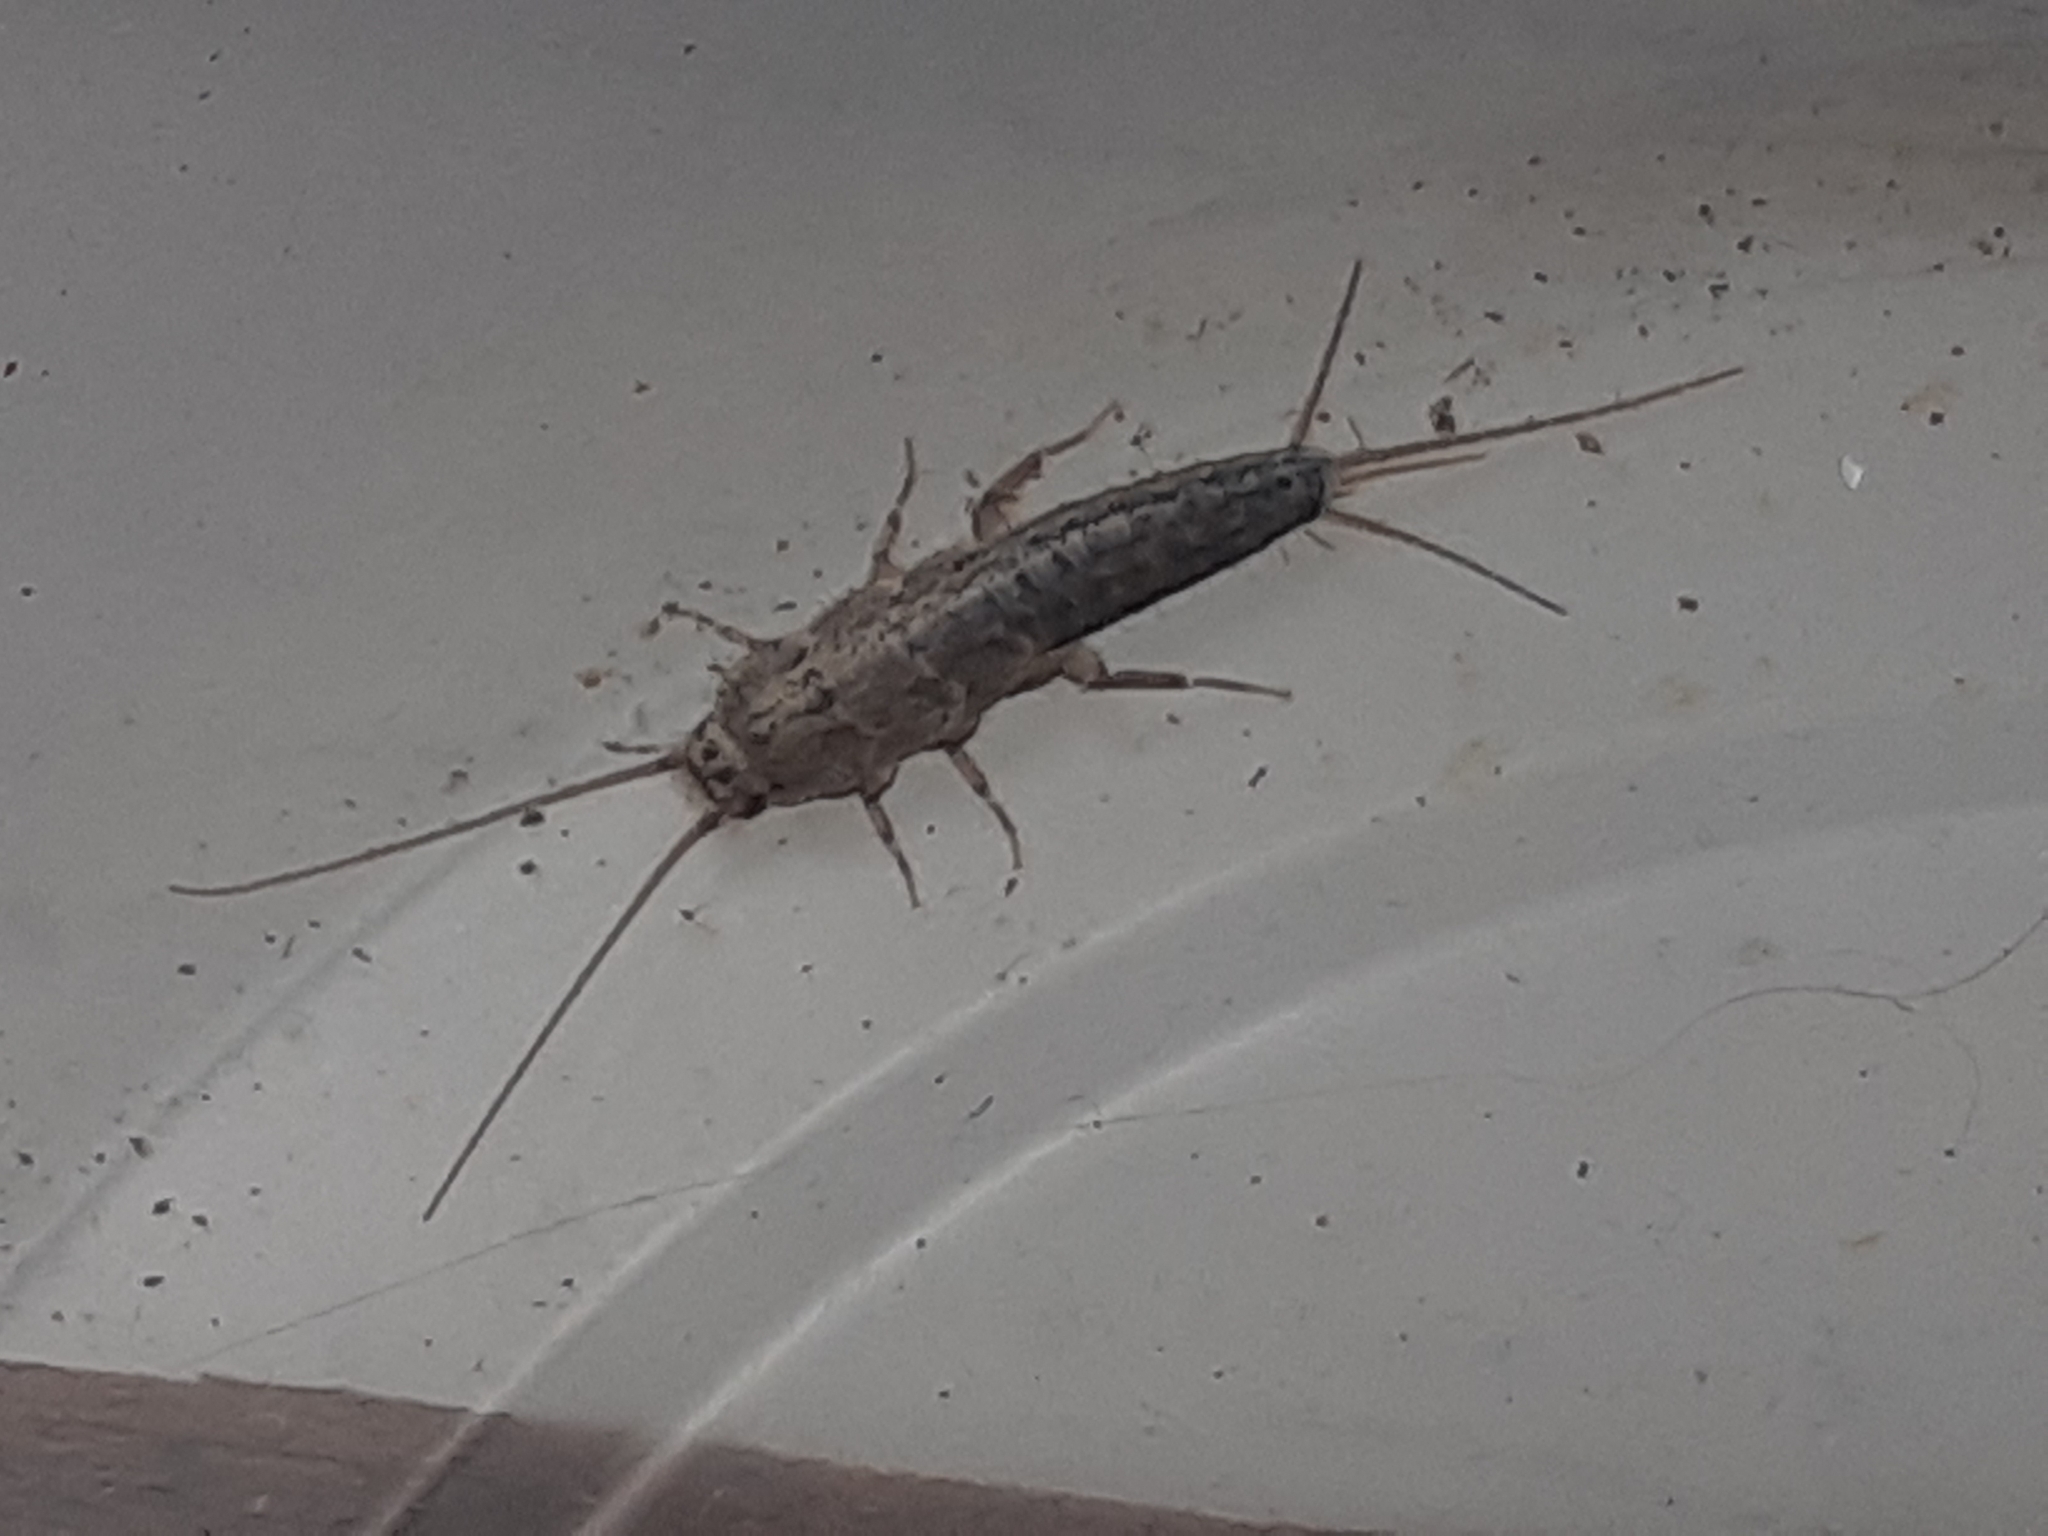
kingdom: Animalia
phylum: Arthropoda
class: Insecta
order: Zygentoma
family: Lepismatidae
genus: Ctenolepisma
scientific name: Ctenolepisma lineata
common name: Four-lined silverfish
